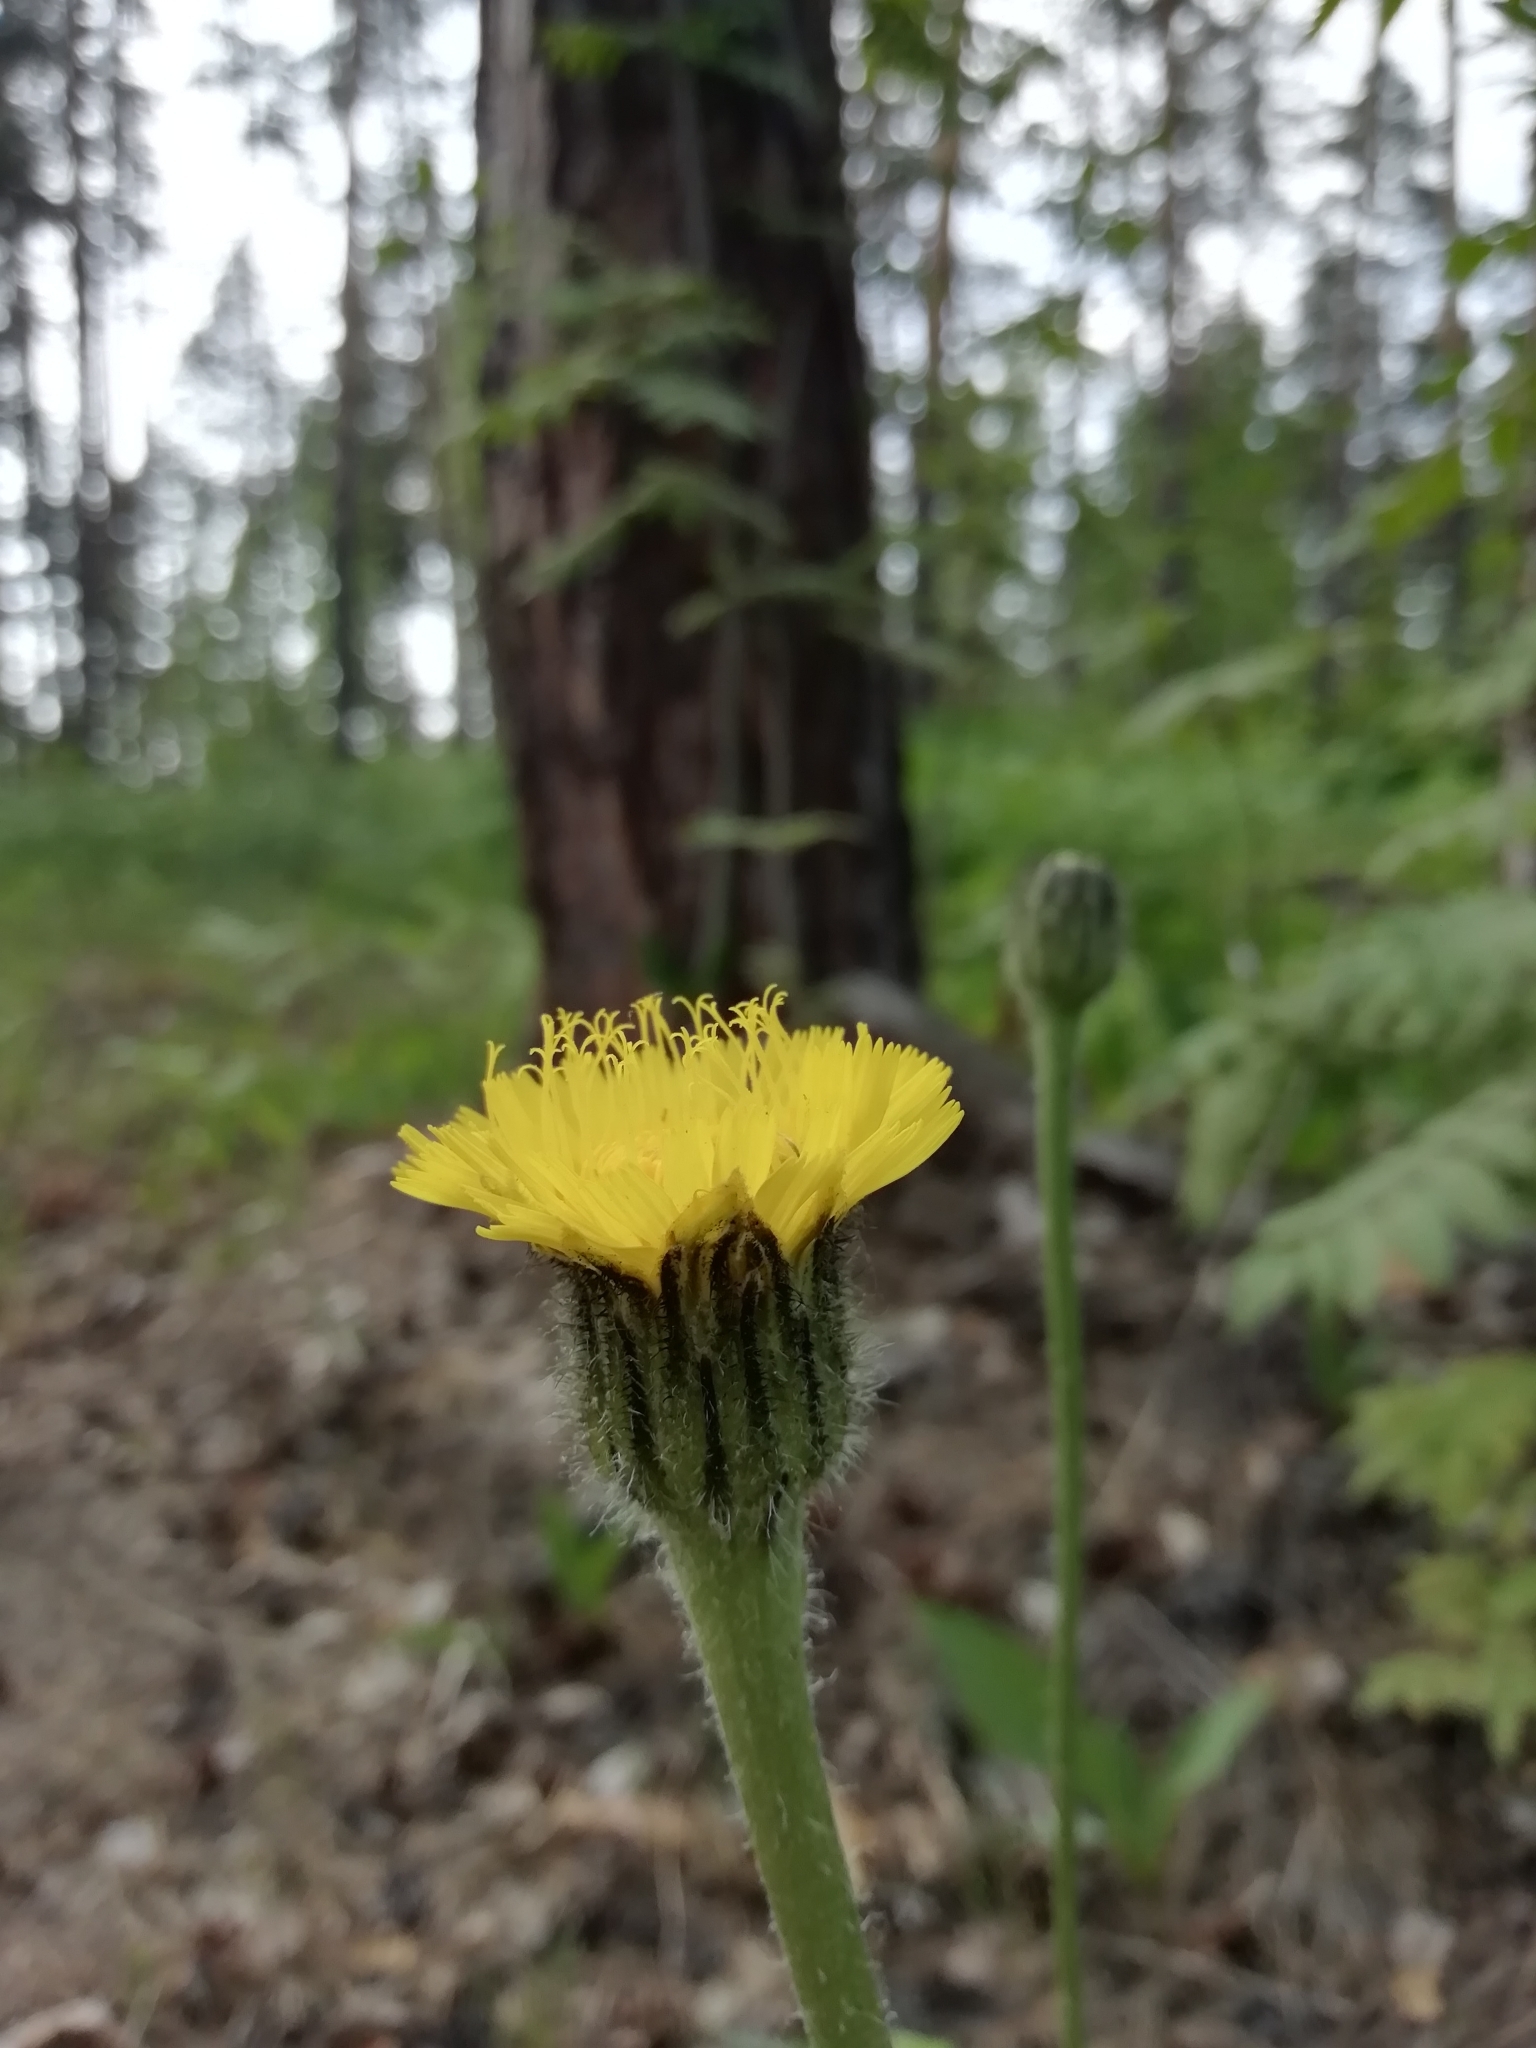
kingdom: Plantae
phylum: Tracheophyta
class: Magnoliopsida
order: Asterales
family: Asteraceae
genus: Trommsdorffia
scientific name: Trommsdorffia maculata
